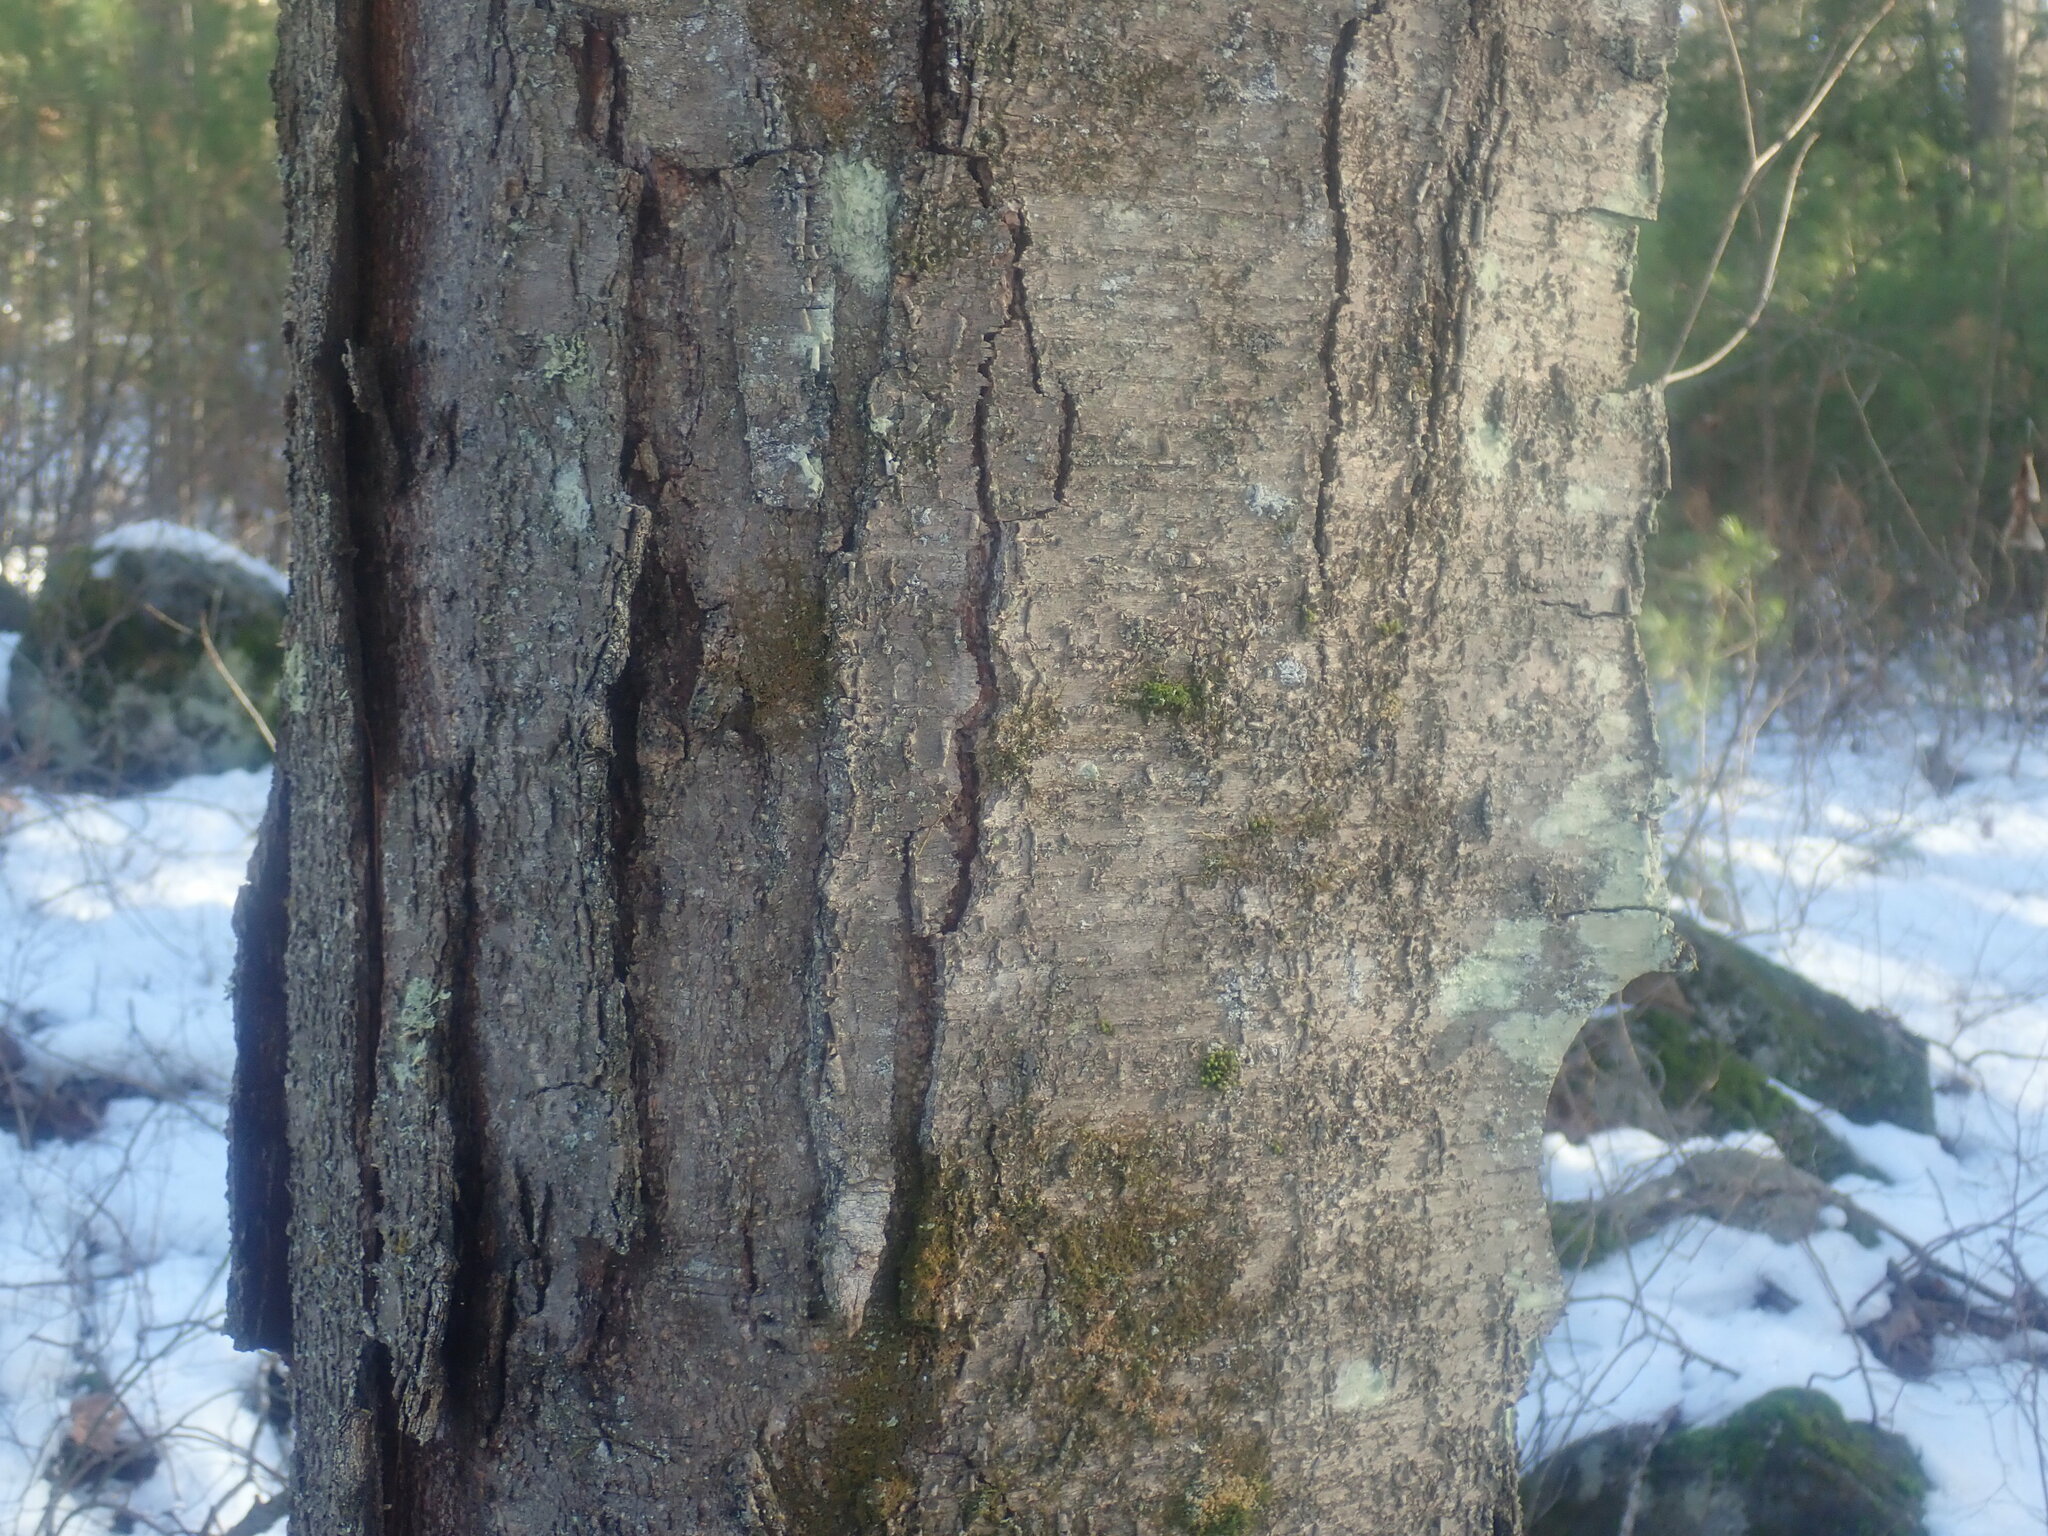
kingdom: Plantae
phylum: Tracheophyta
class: Magnoliopsida
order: Fagales
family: Betulaceae
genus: Betula
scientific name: Betula lenta
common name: Black birch
